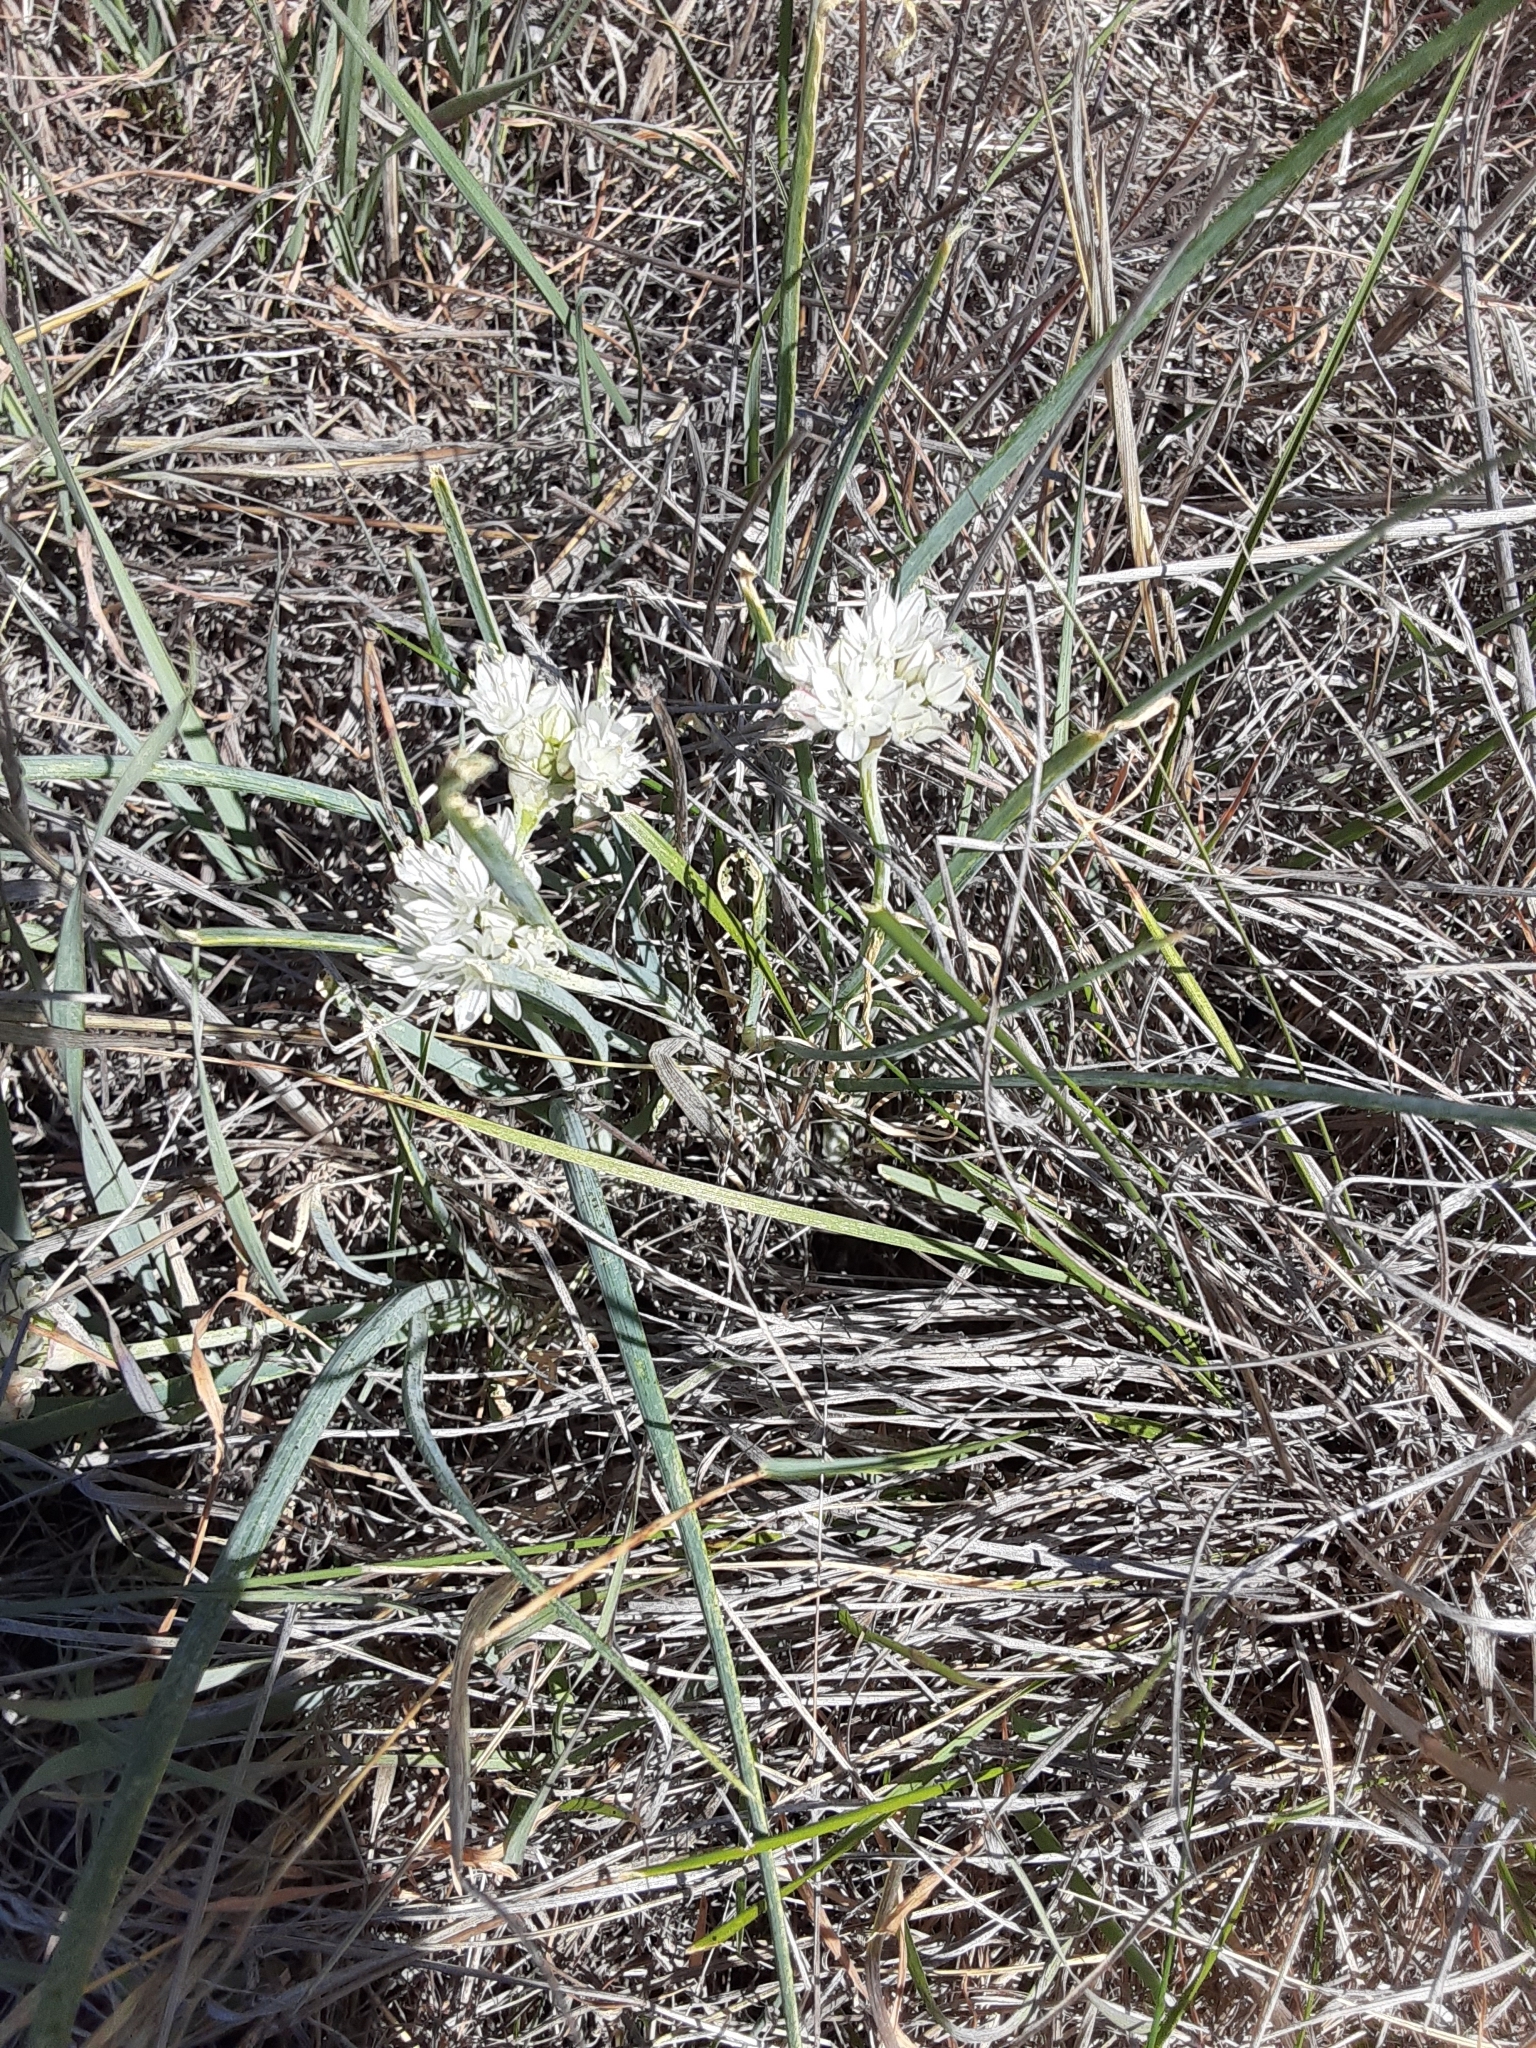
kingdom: Plantae
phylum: Tracheophyta
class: Liliopsida
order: Asparagales
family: Amaryllidaceae
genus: Allium
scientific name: Allium haematochiton
